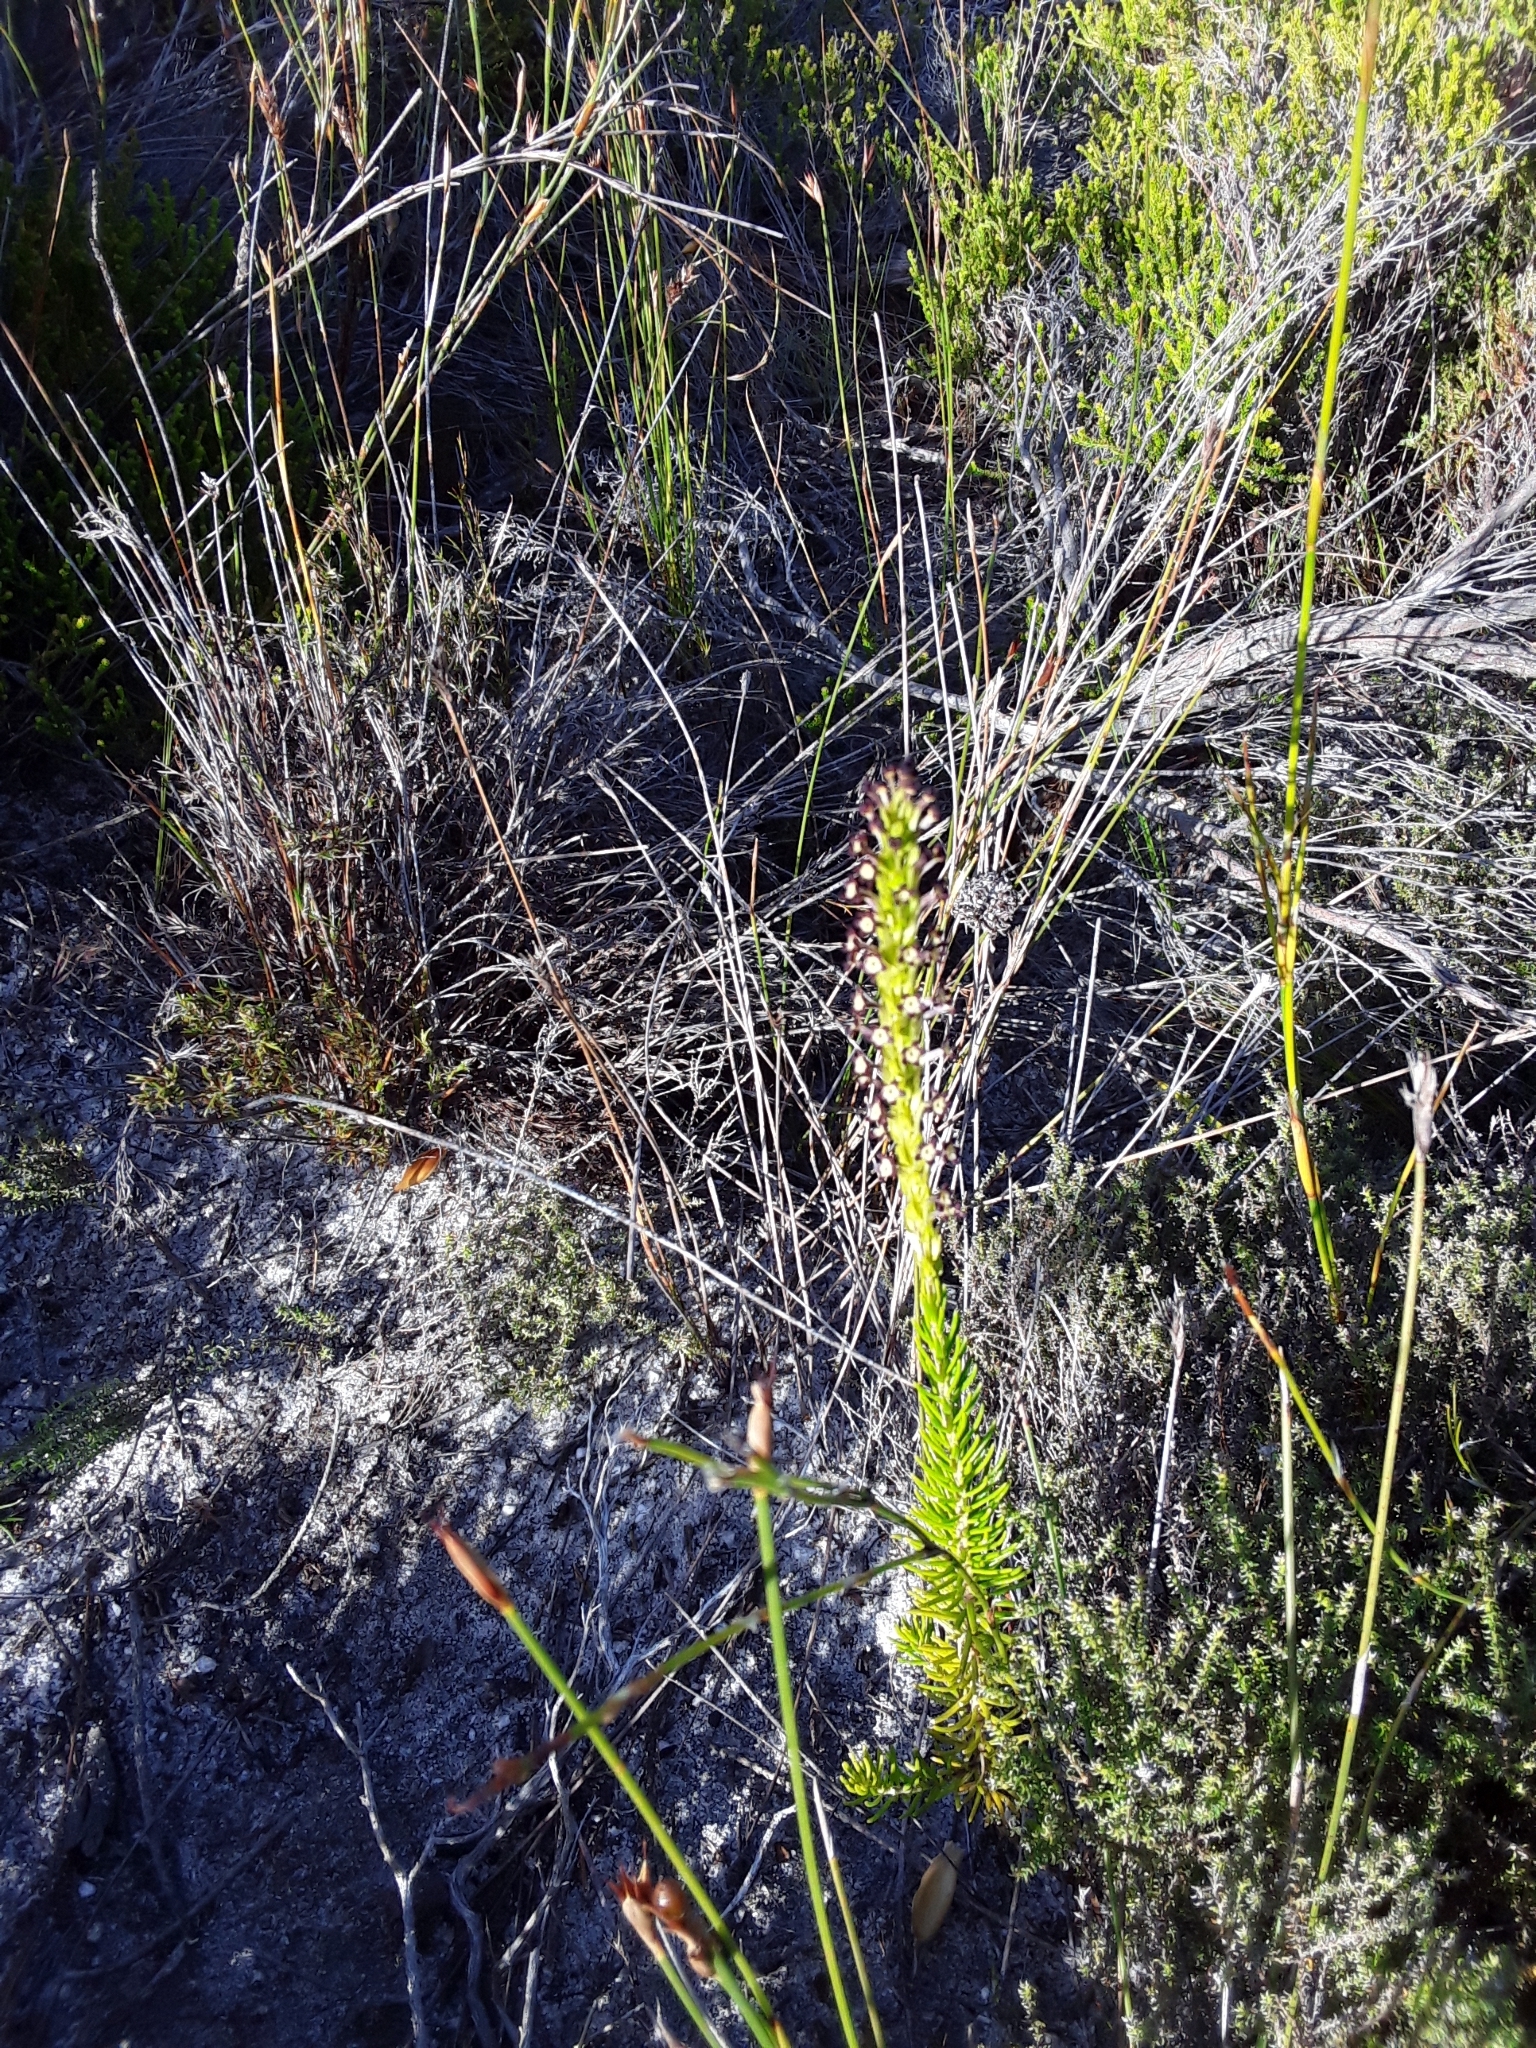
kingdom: Plantae
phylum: Tracheophyta
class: Magnoliopsida
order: Lamiales
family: Scrophulariaceae
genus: Microdon
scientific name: Microdon dubius
